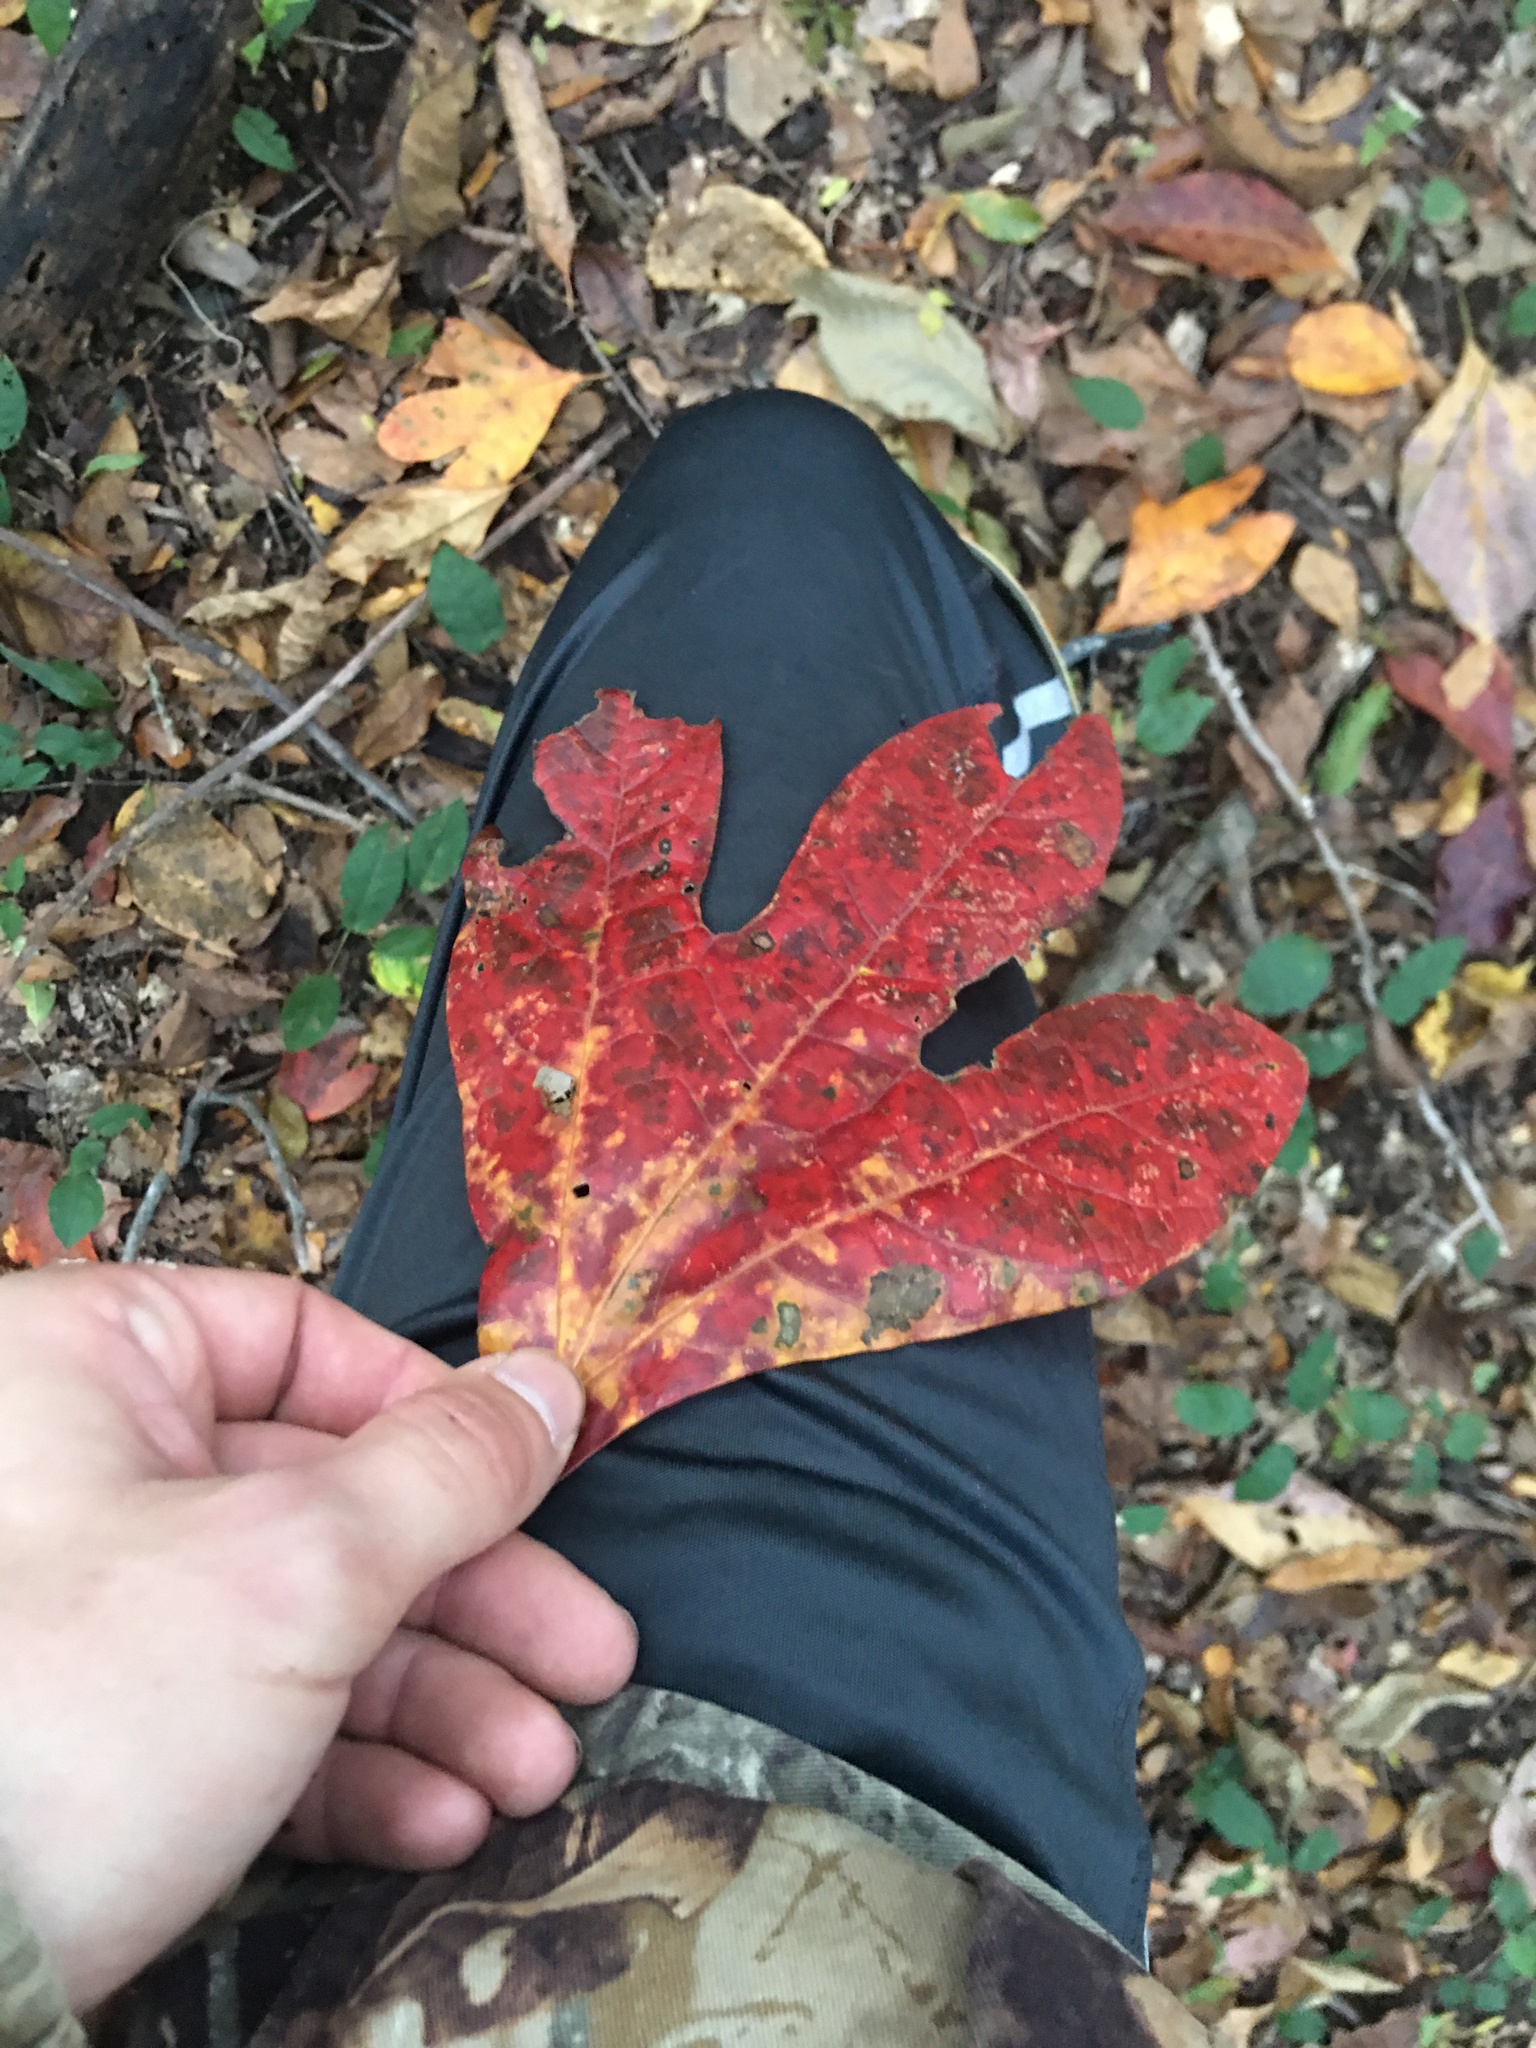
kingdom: Plantae
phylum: Tracheophyta
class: Magnoliopsida
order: Laurales
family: Lauraceae
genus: Sassafras
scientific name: Sassafras albidum
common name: Sassafras
